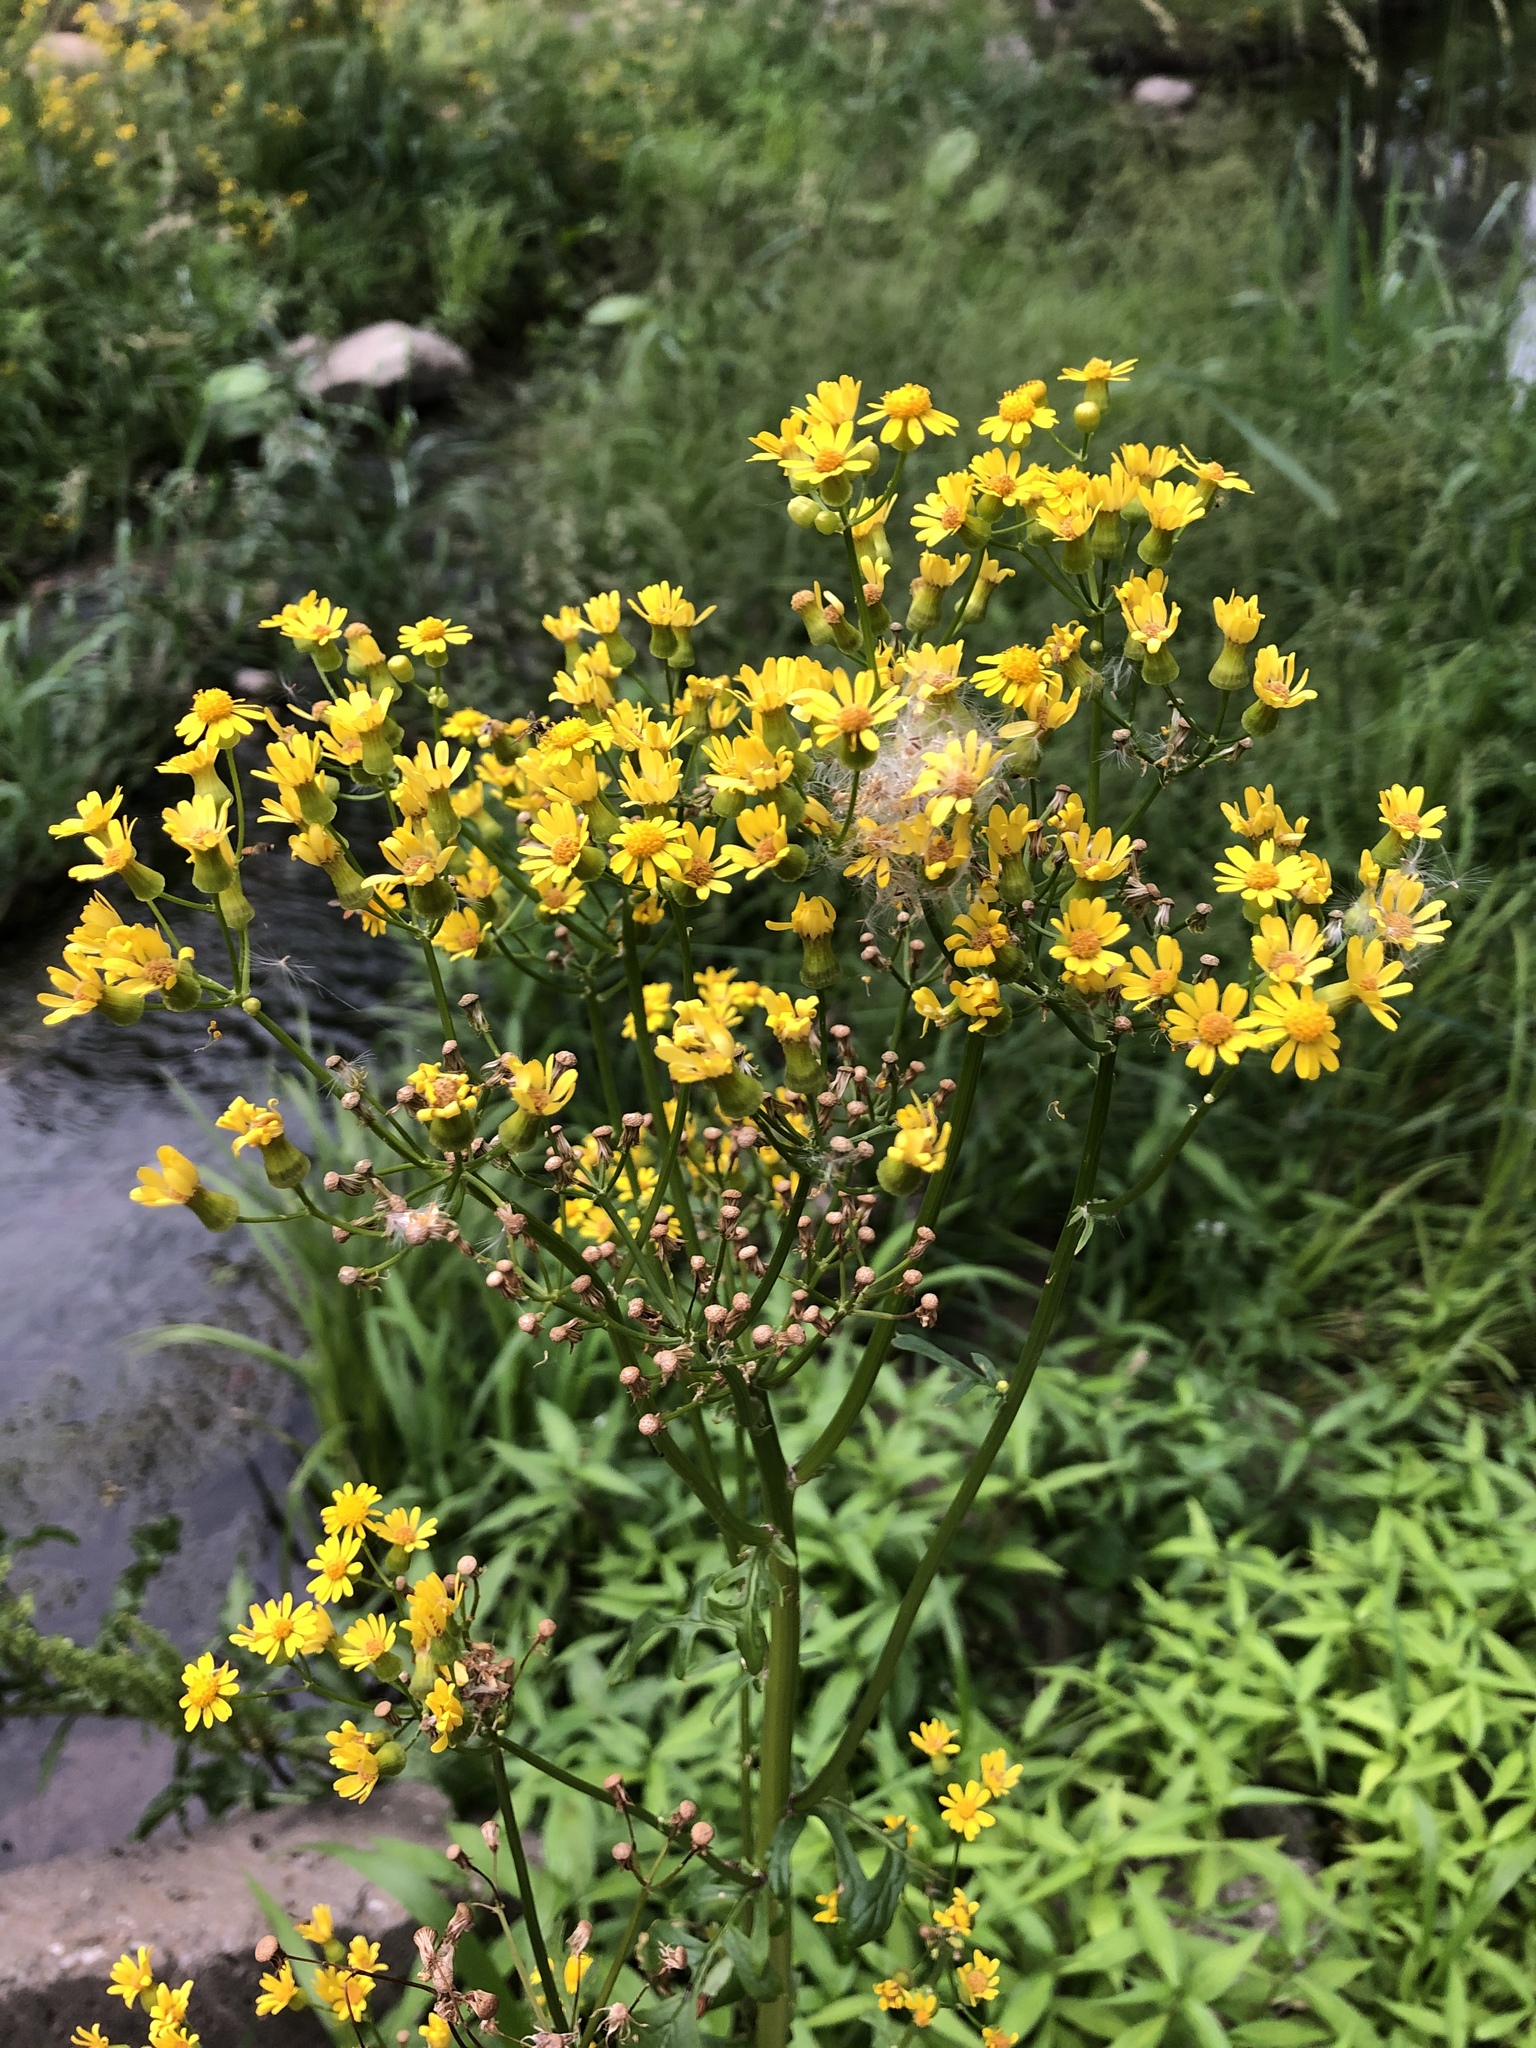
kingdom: Plantae
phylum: Tracheophyta
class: Magnoliopsida
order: Asterales
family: Asteraceae
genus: Packera
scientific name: Packera glabella
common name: Butterweed
